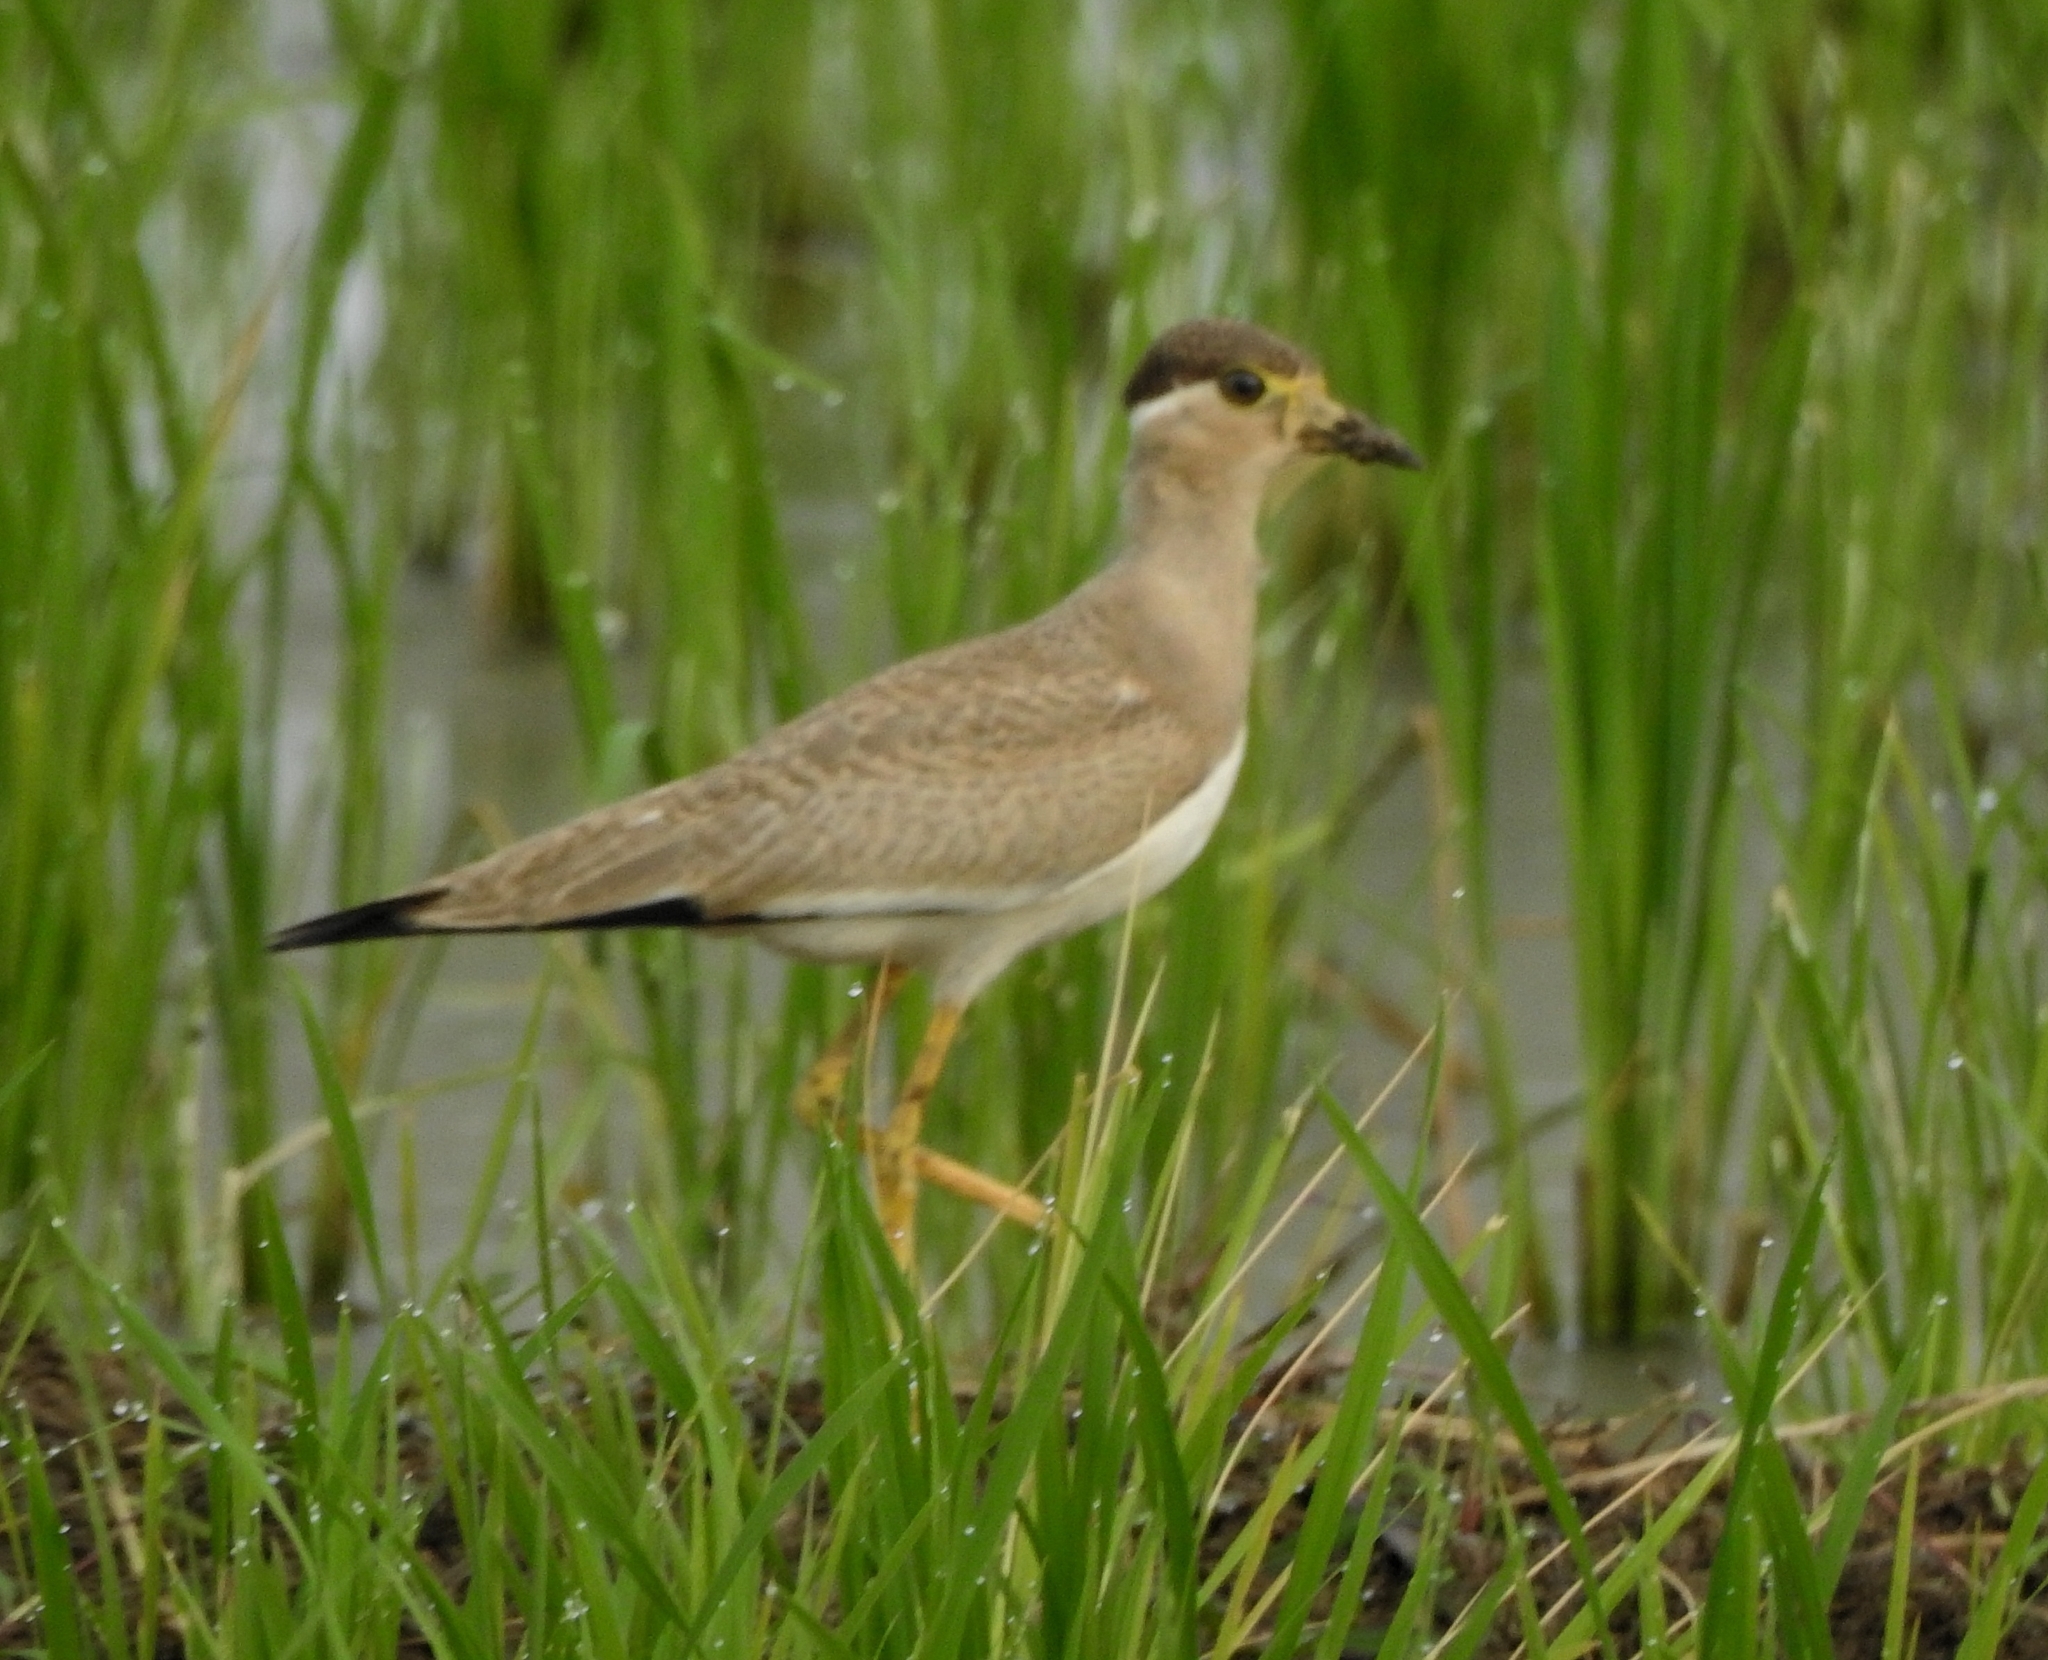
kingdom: Animalia
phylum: Chordata
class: Aves
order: Charadriiformes
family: Charadriidae
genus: Vanellus
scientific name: Vanellus malabaricus
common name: Yellow-wattled lapwing
